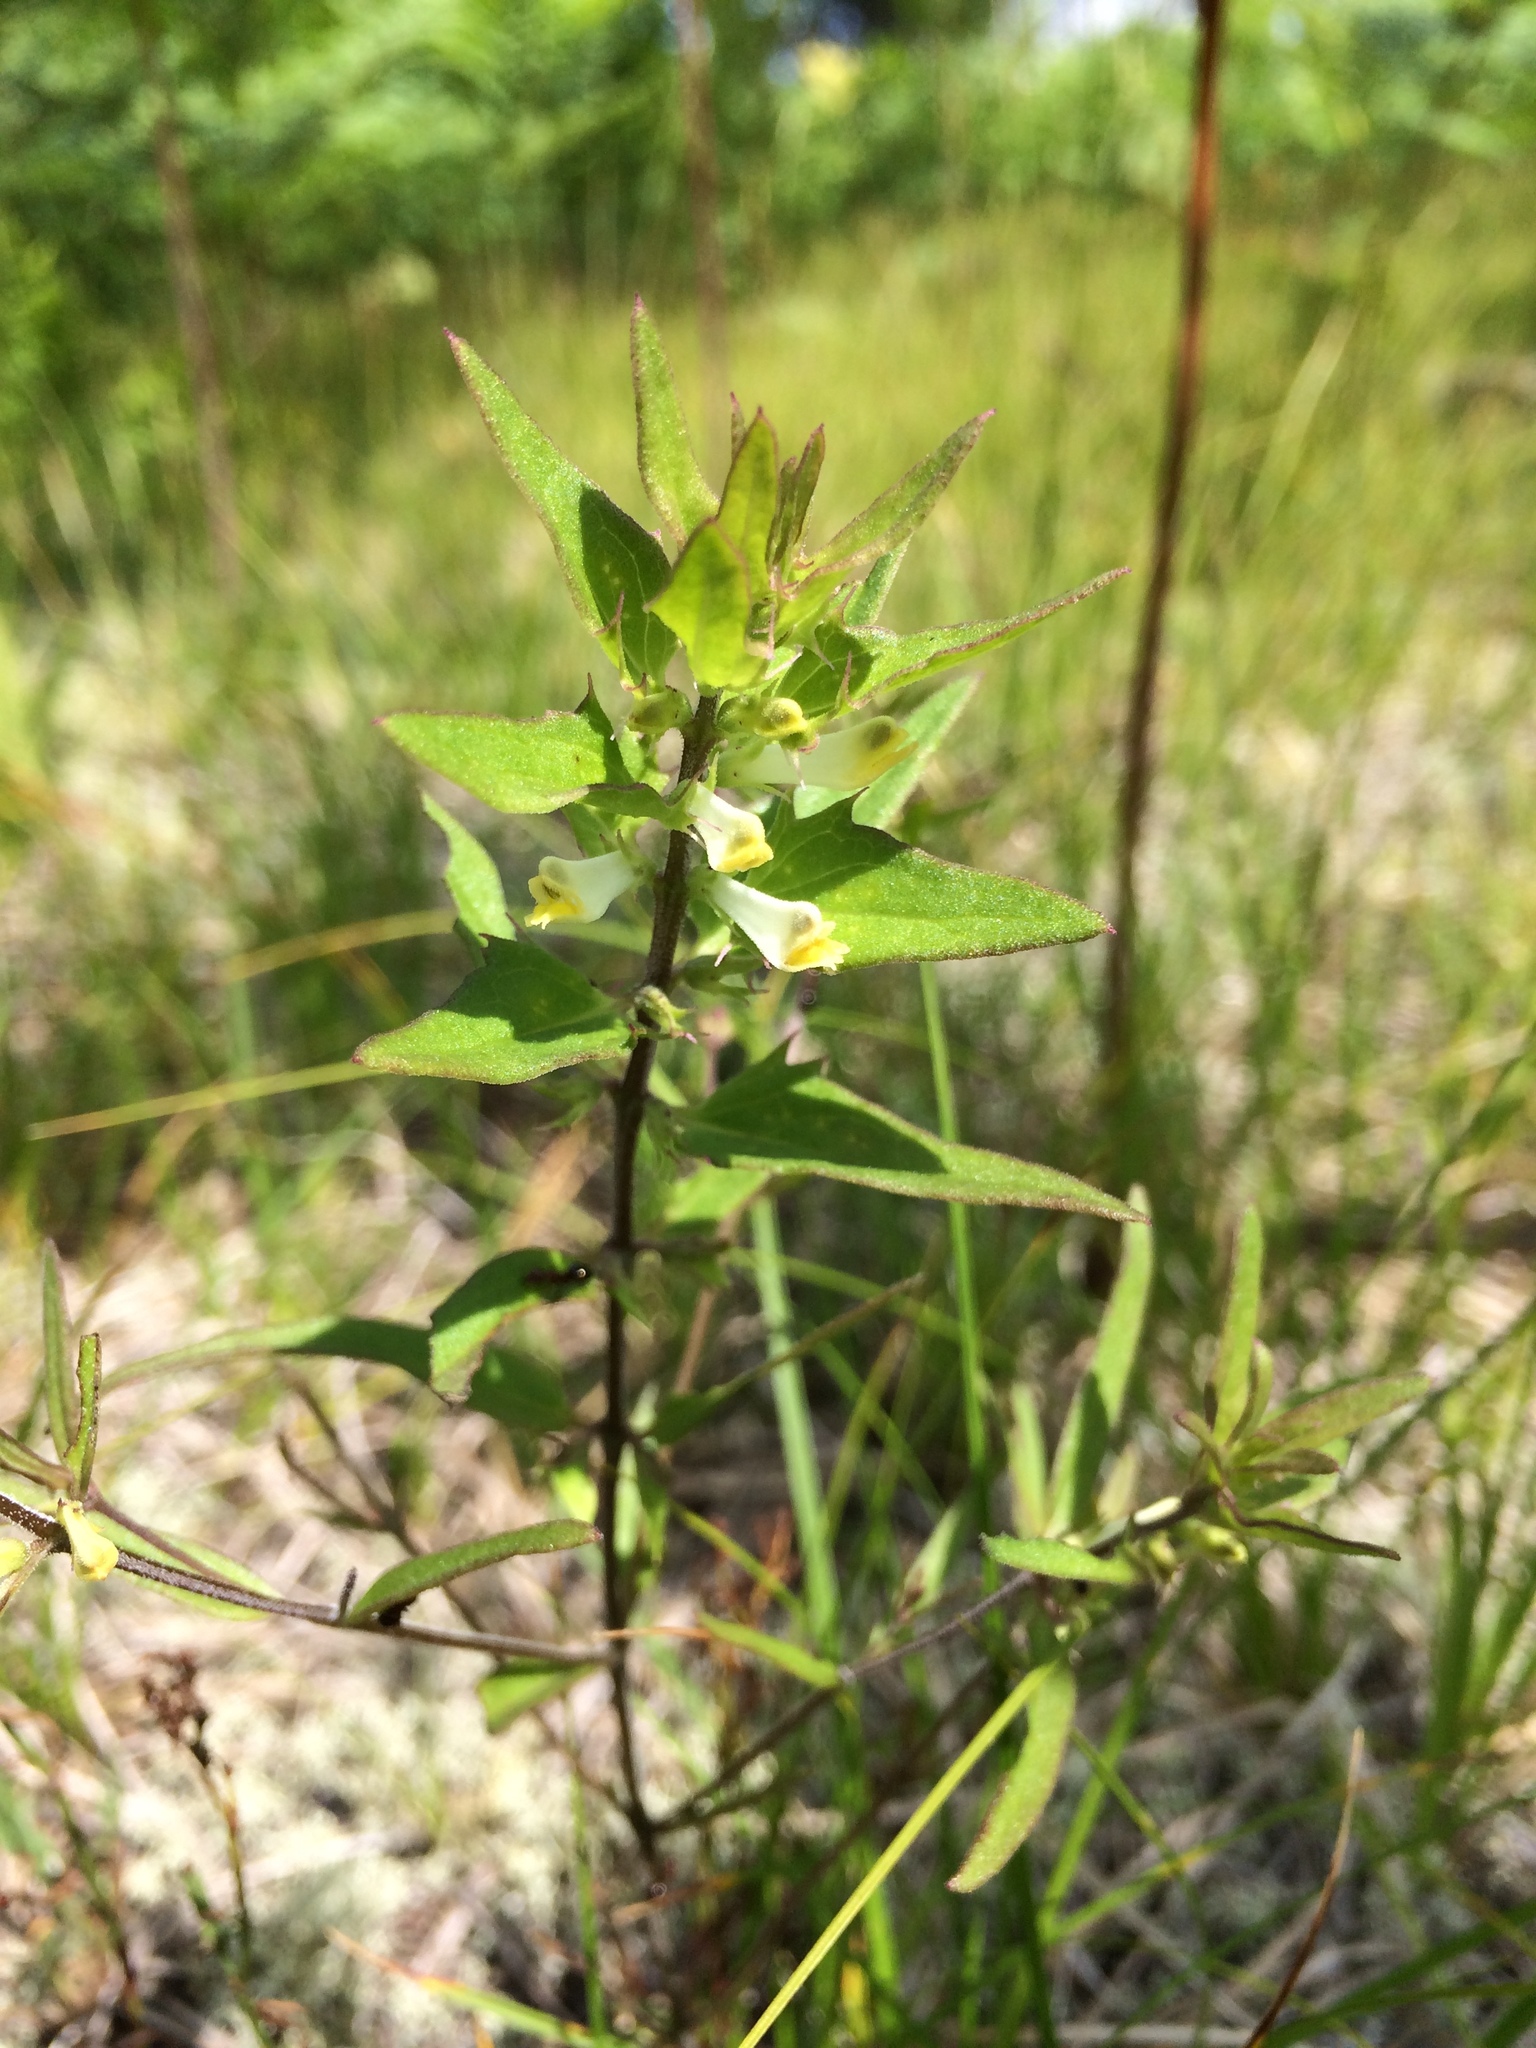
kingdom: Plantae
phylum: Tracheophyta
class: Magnoliopsida
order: Lamiales
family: Orobanchaceae
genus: Melampyrum
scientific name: Melampyrum lineare
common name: American cow-wheat
